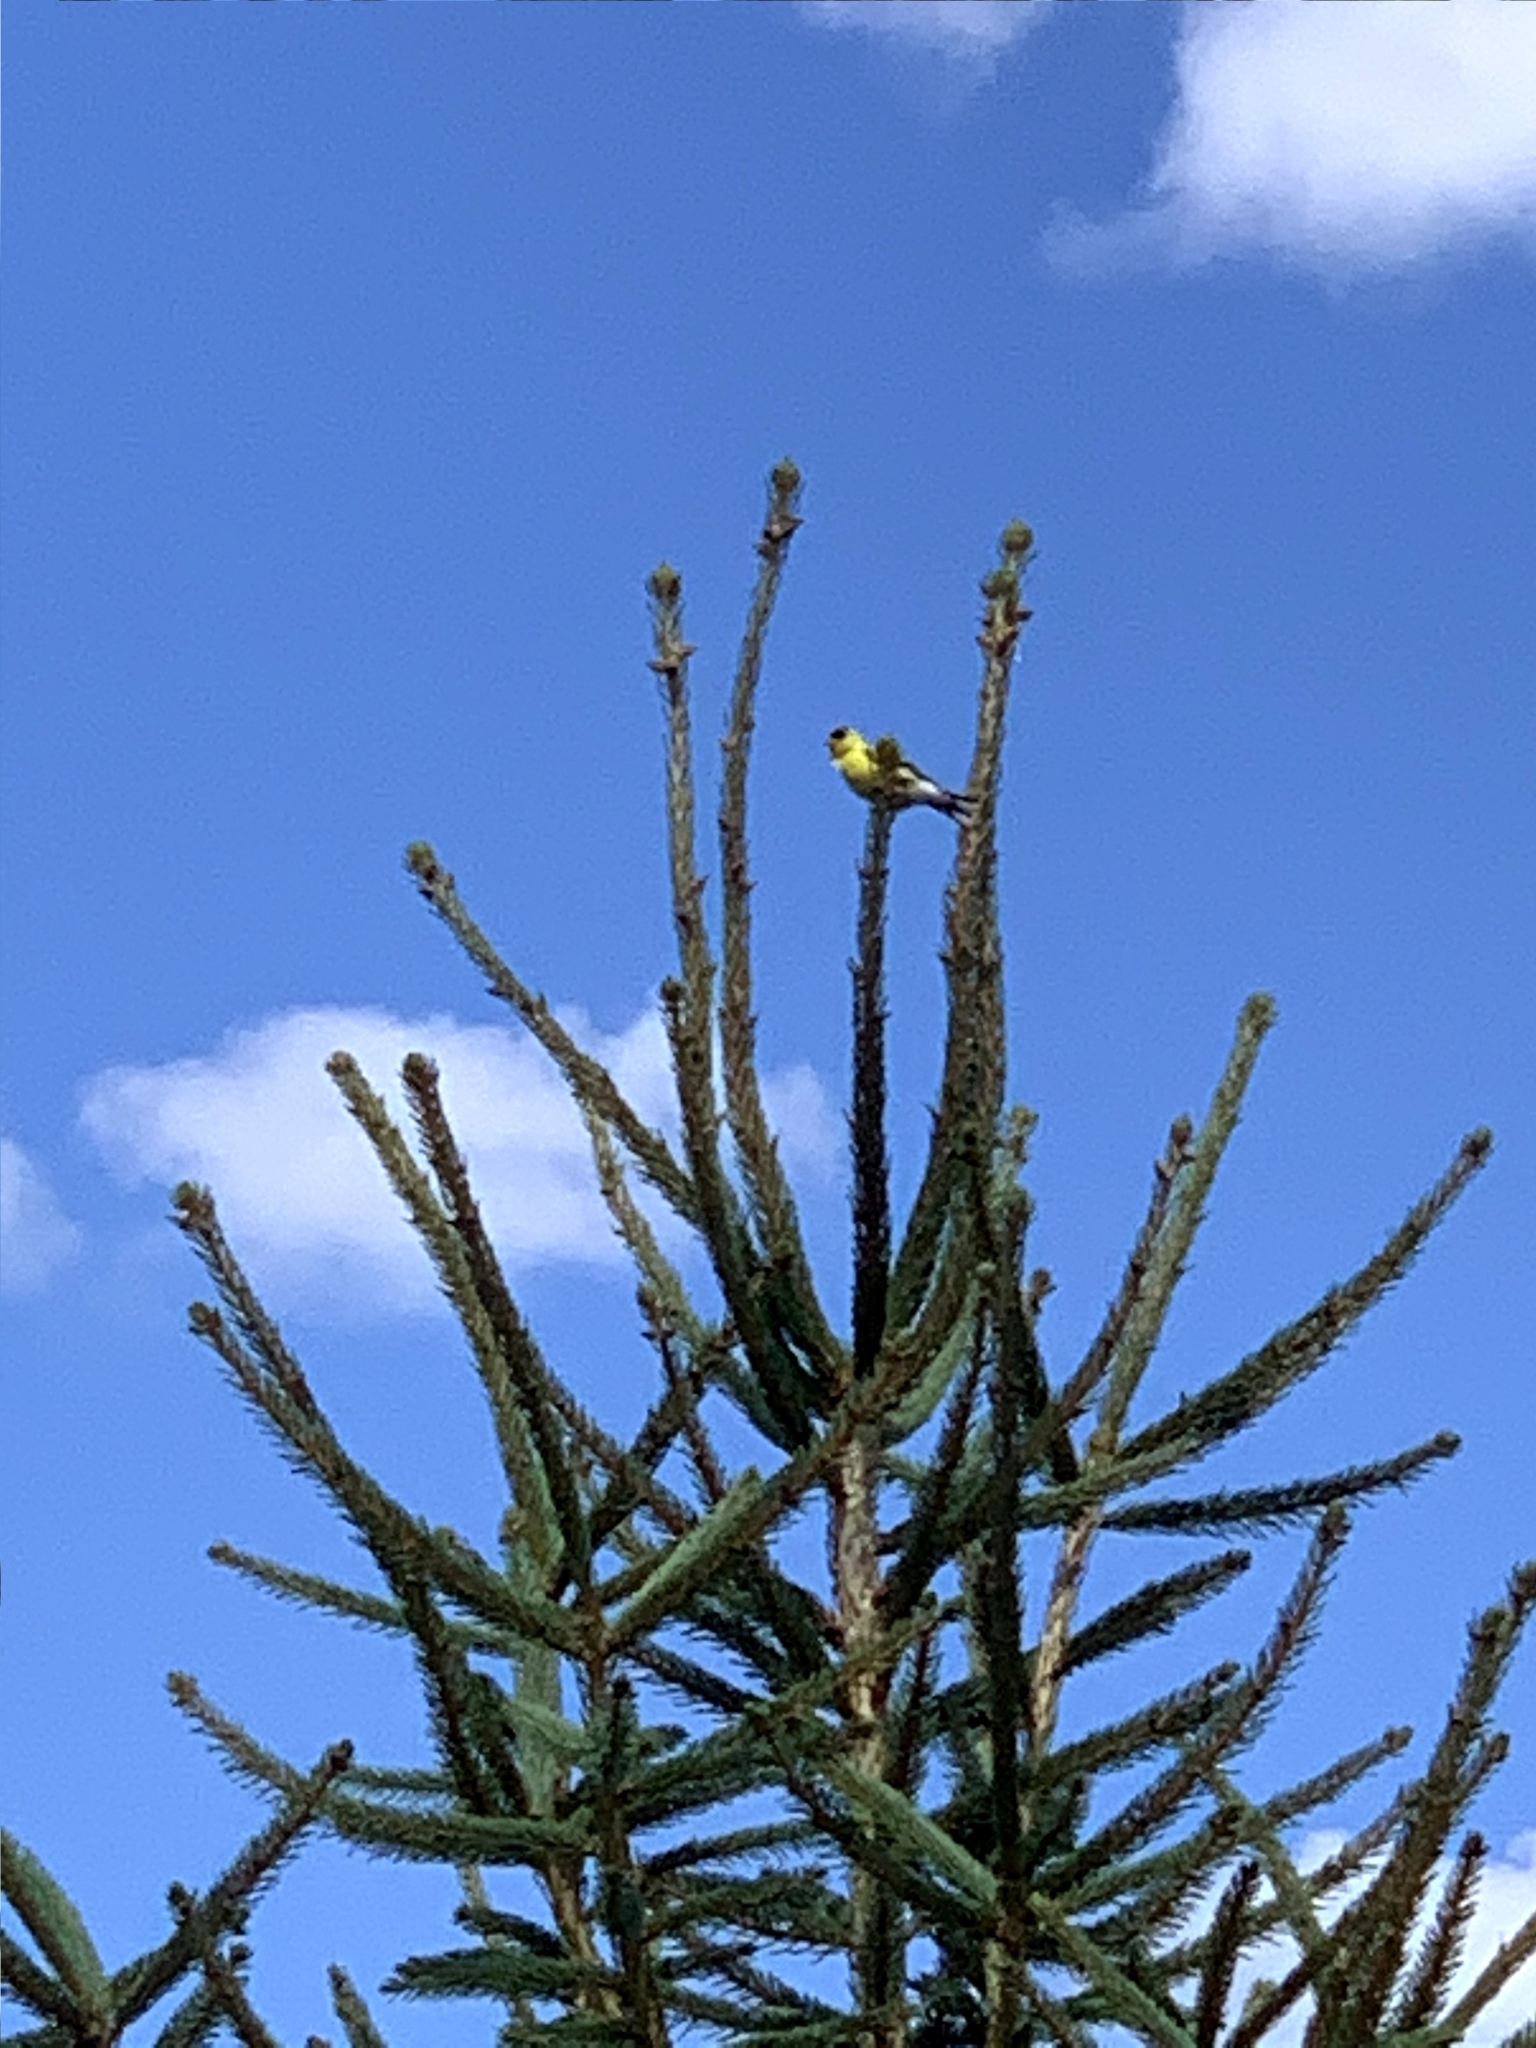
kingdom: Animalia
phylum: Chordata
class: Aves
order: Passeriformes
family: Fringillidae
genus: Spinus
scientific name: Spinus tristis
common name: American goldfinch
